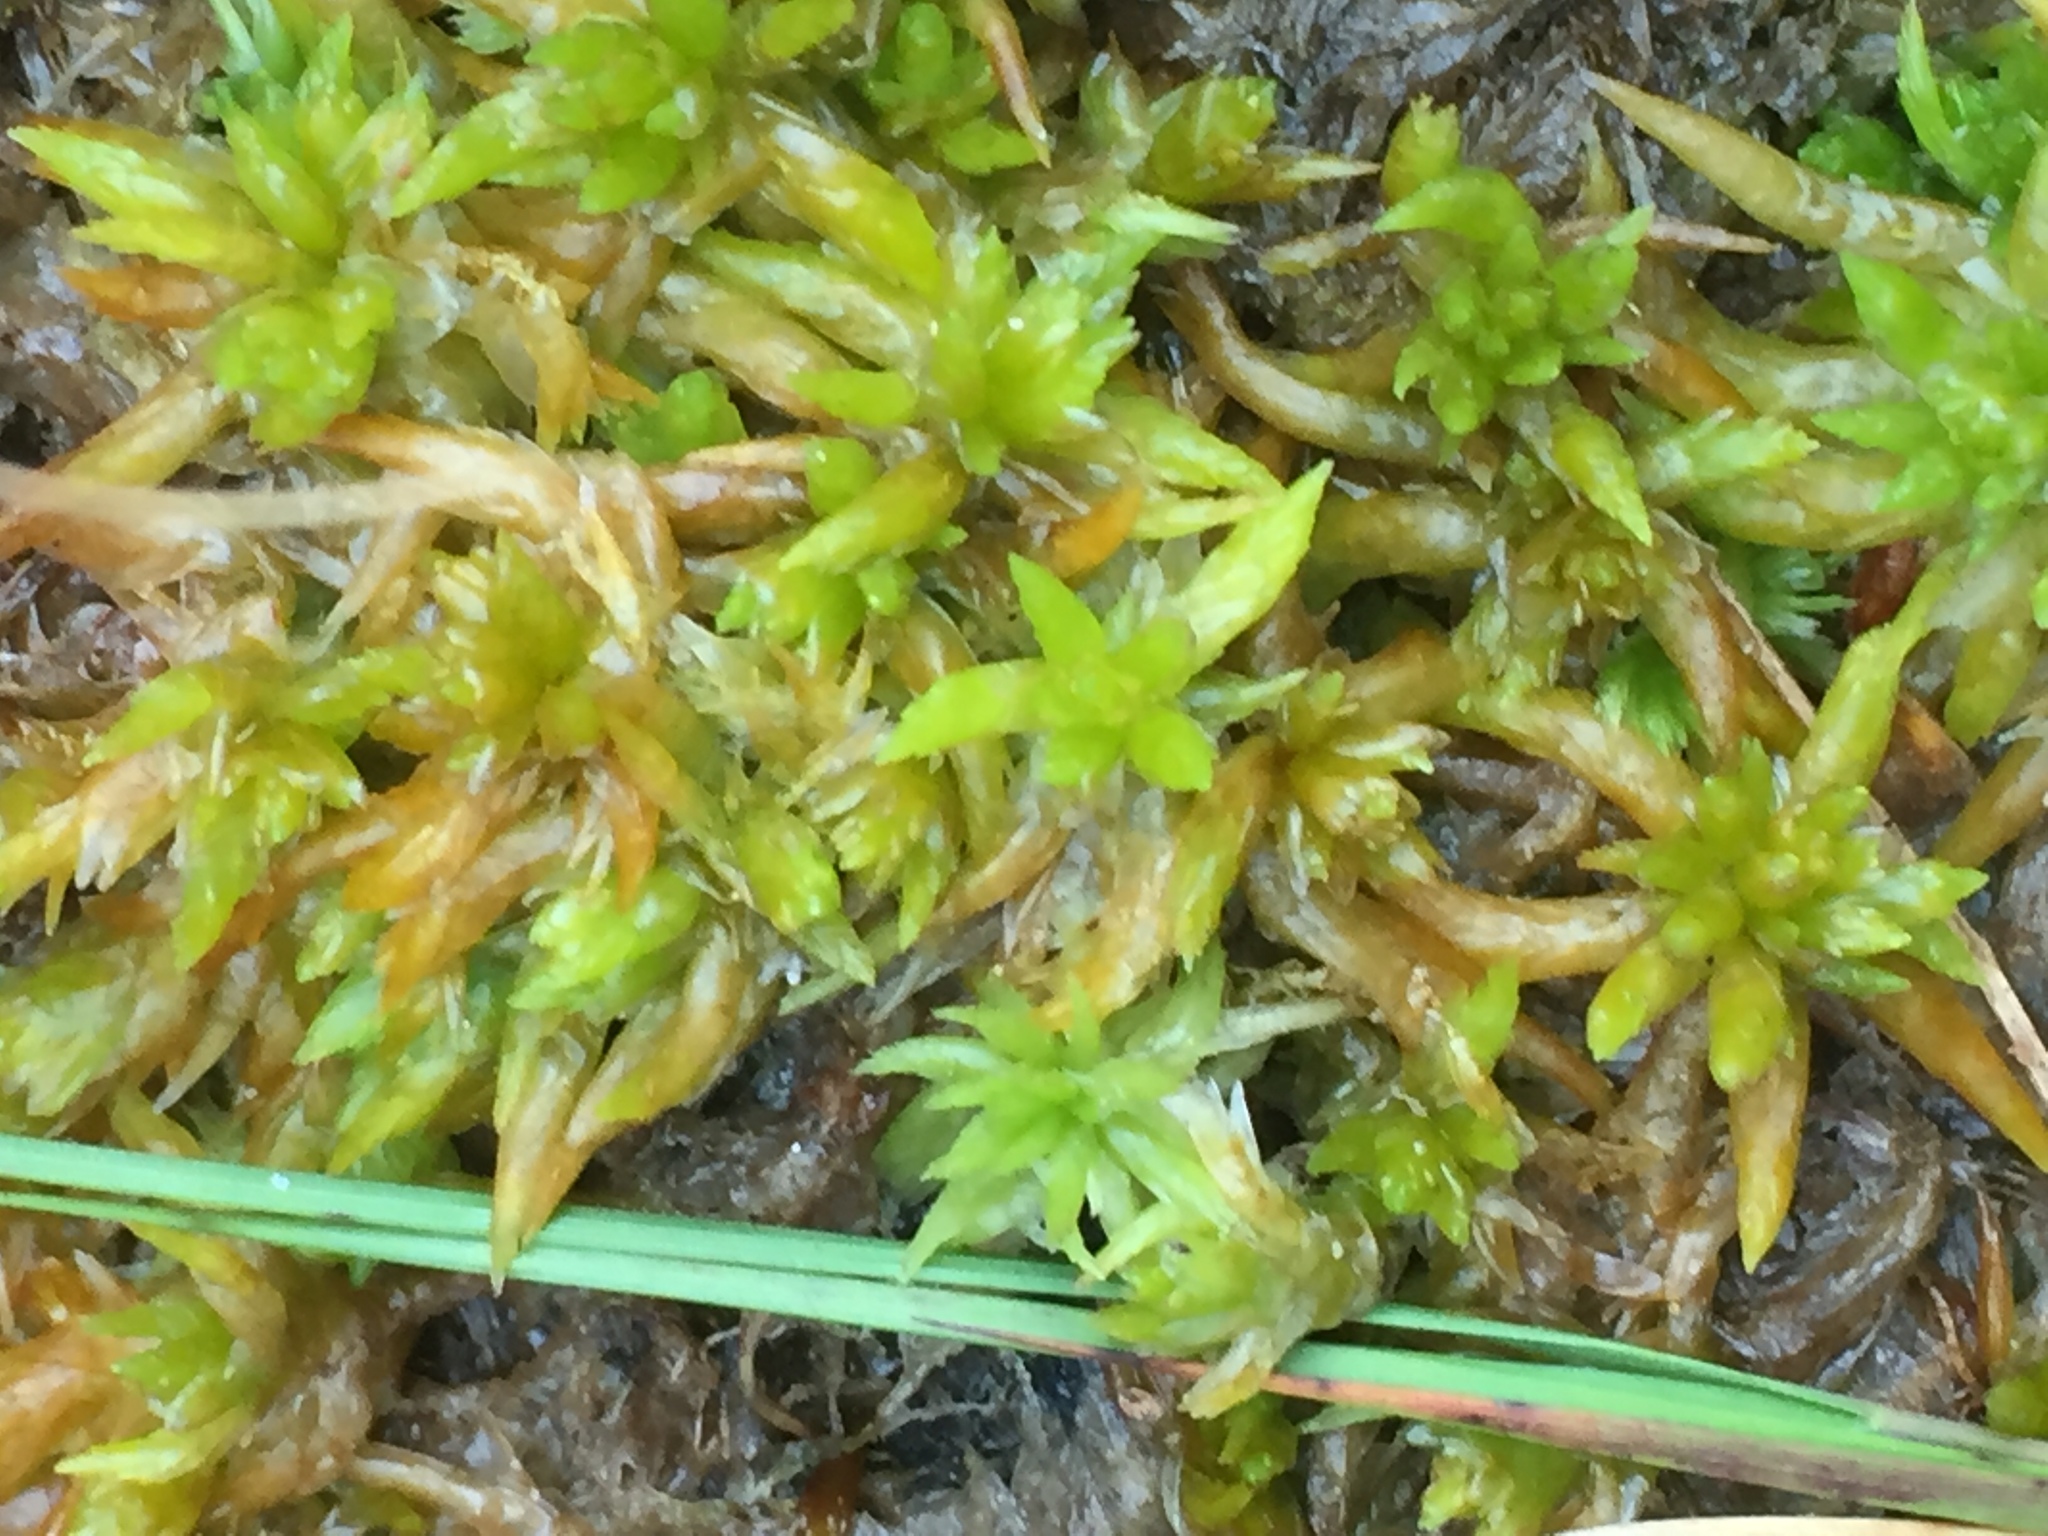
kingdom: Plantae
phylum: Bryophyta
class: Sphagnopsida
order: Sphagnales
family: Sphagnaceae
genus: Sphagnum
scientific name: Sphagnum denticulatum
